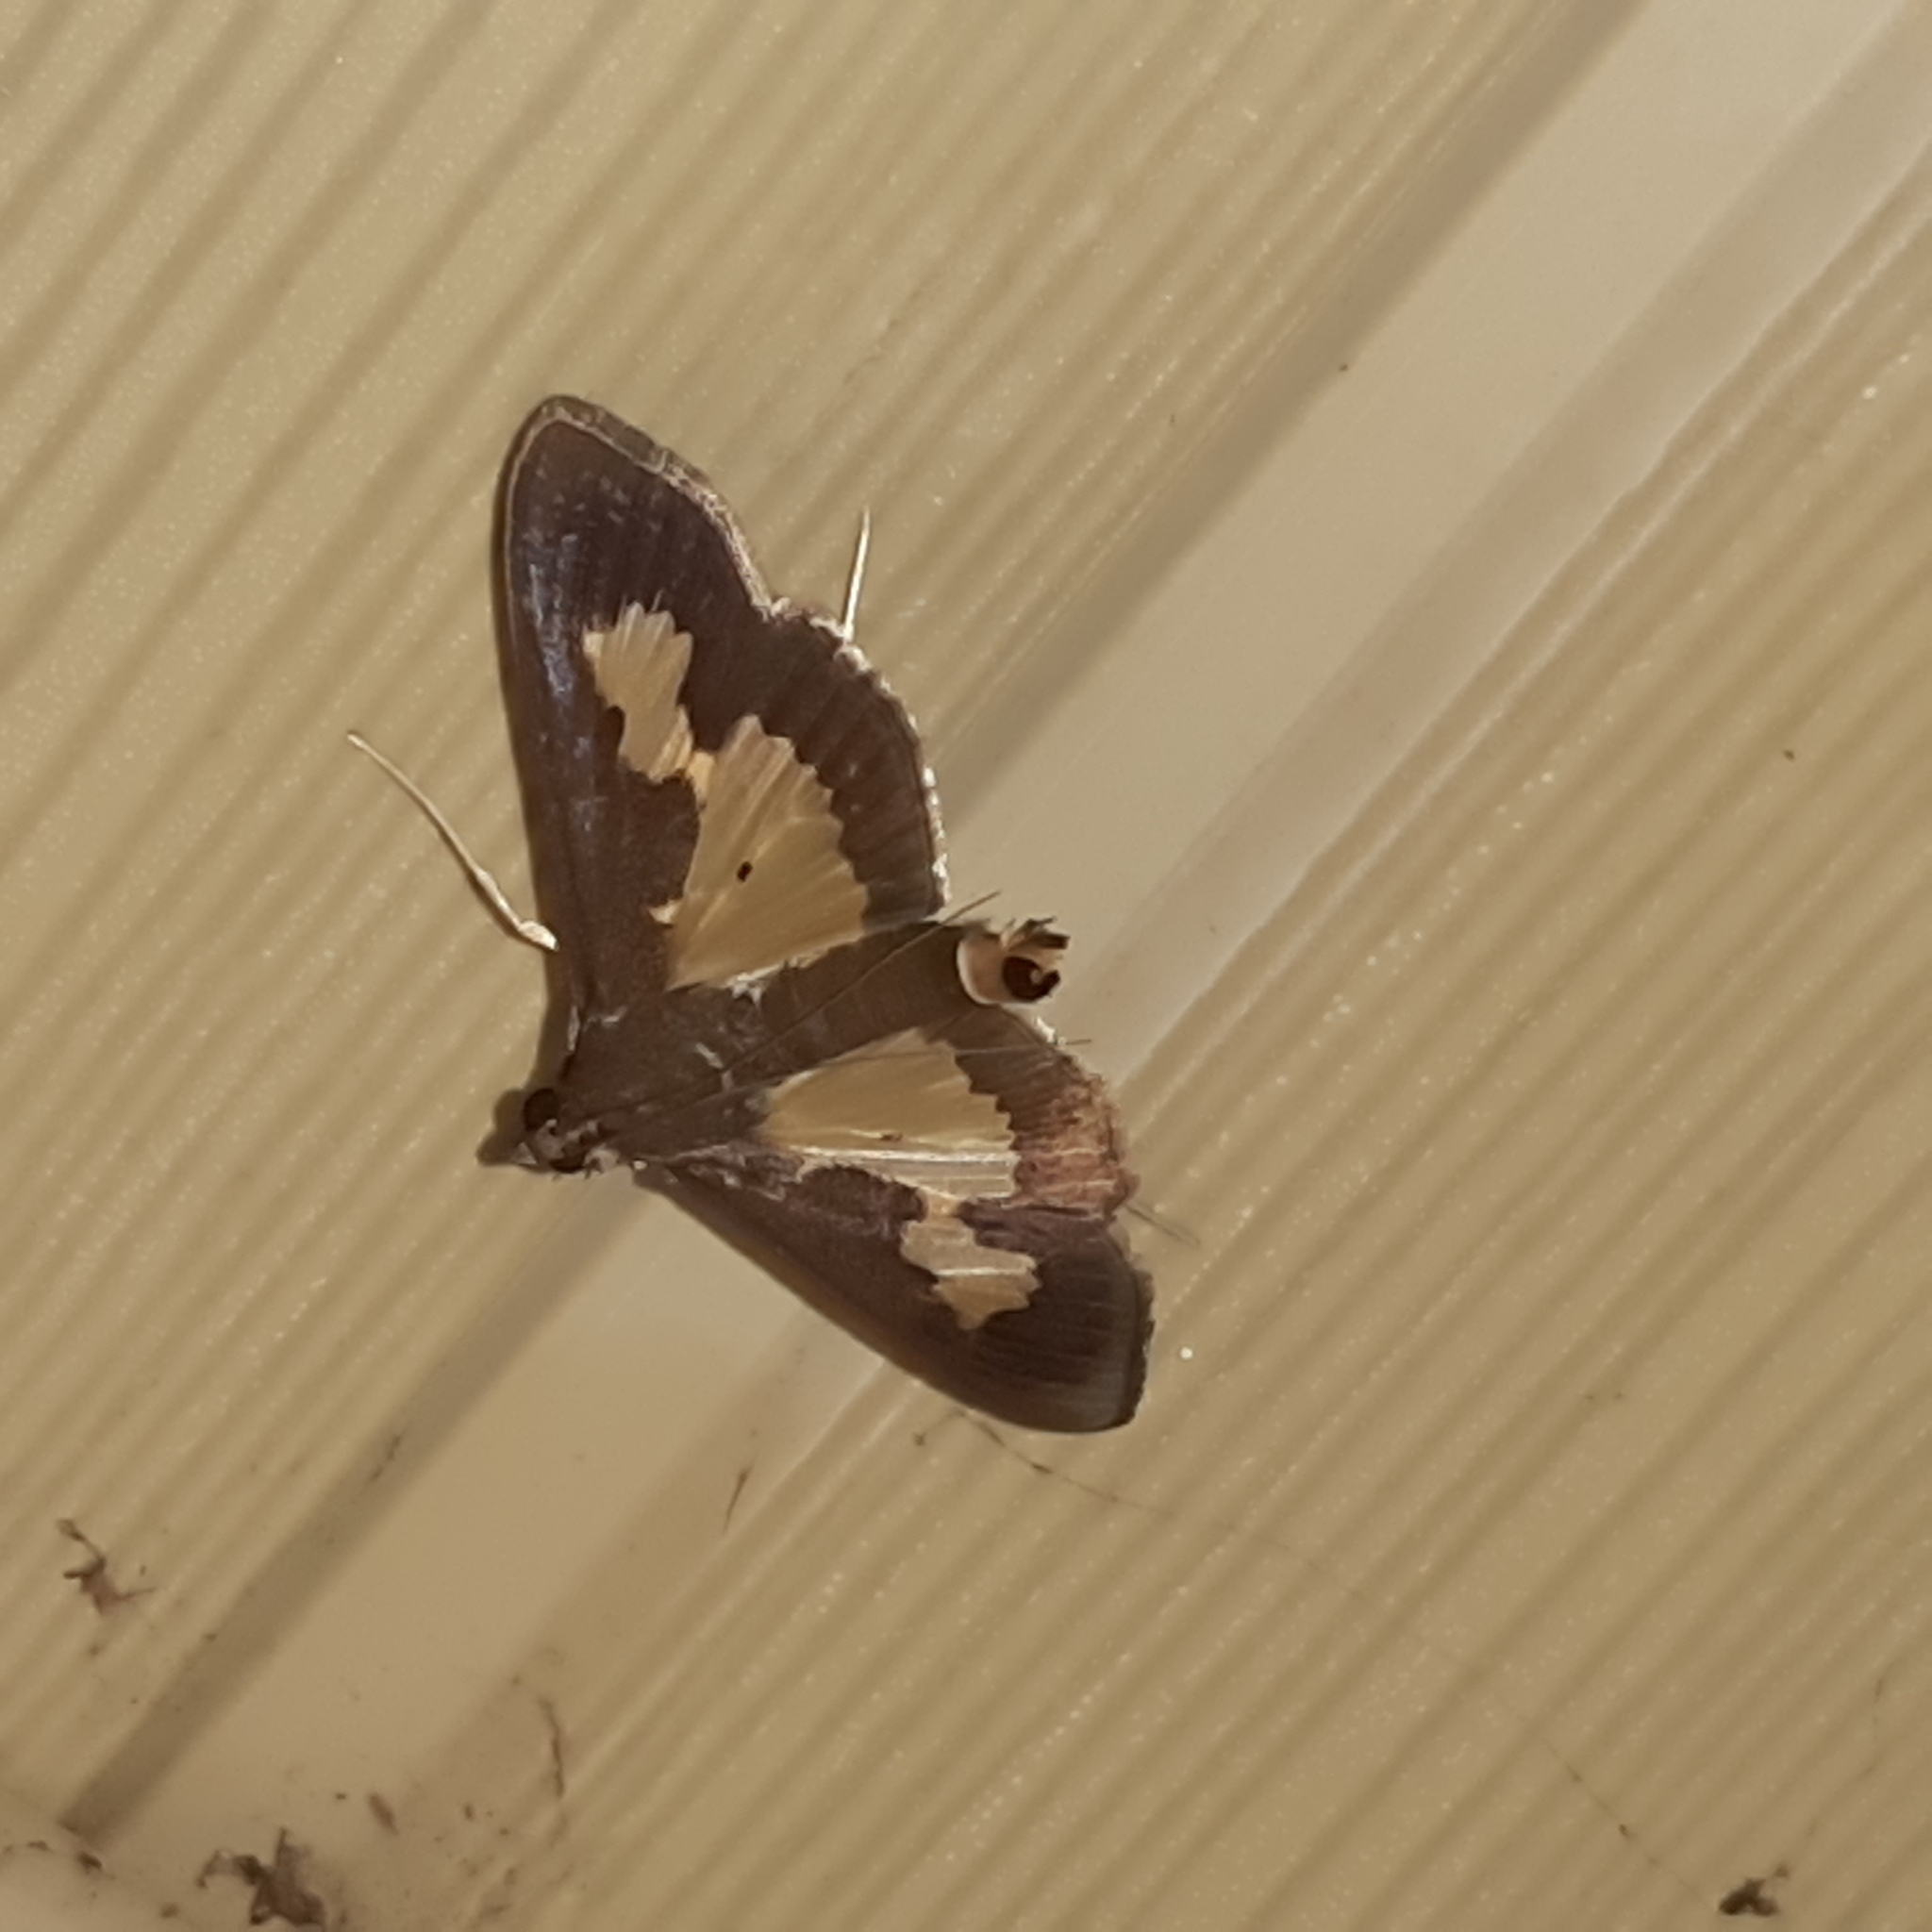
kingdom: Animalia
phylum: Arthropoda
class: Insecta
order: Lepidoptera
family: Crambidae
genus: Cryptographis
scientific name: Cryptographis nitidalis
